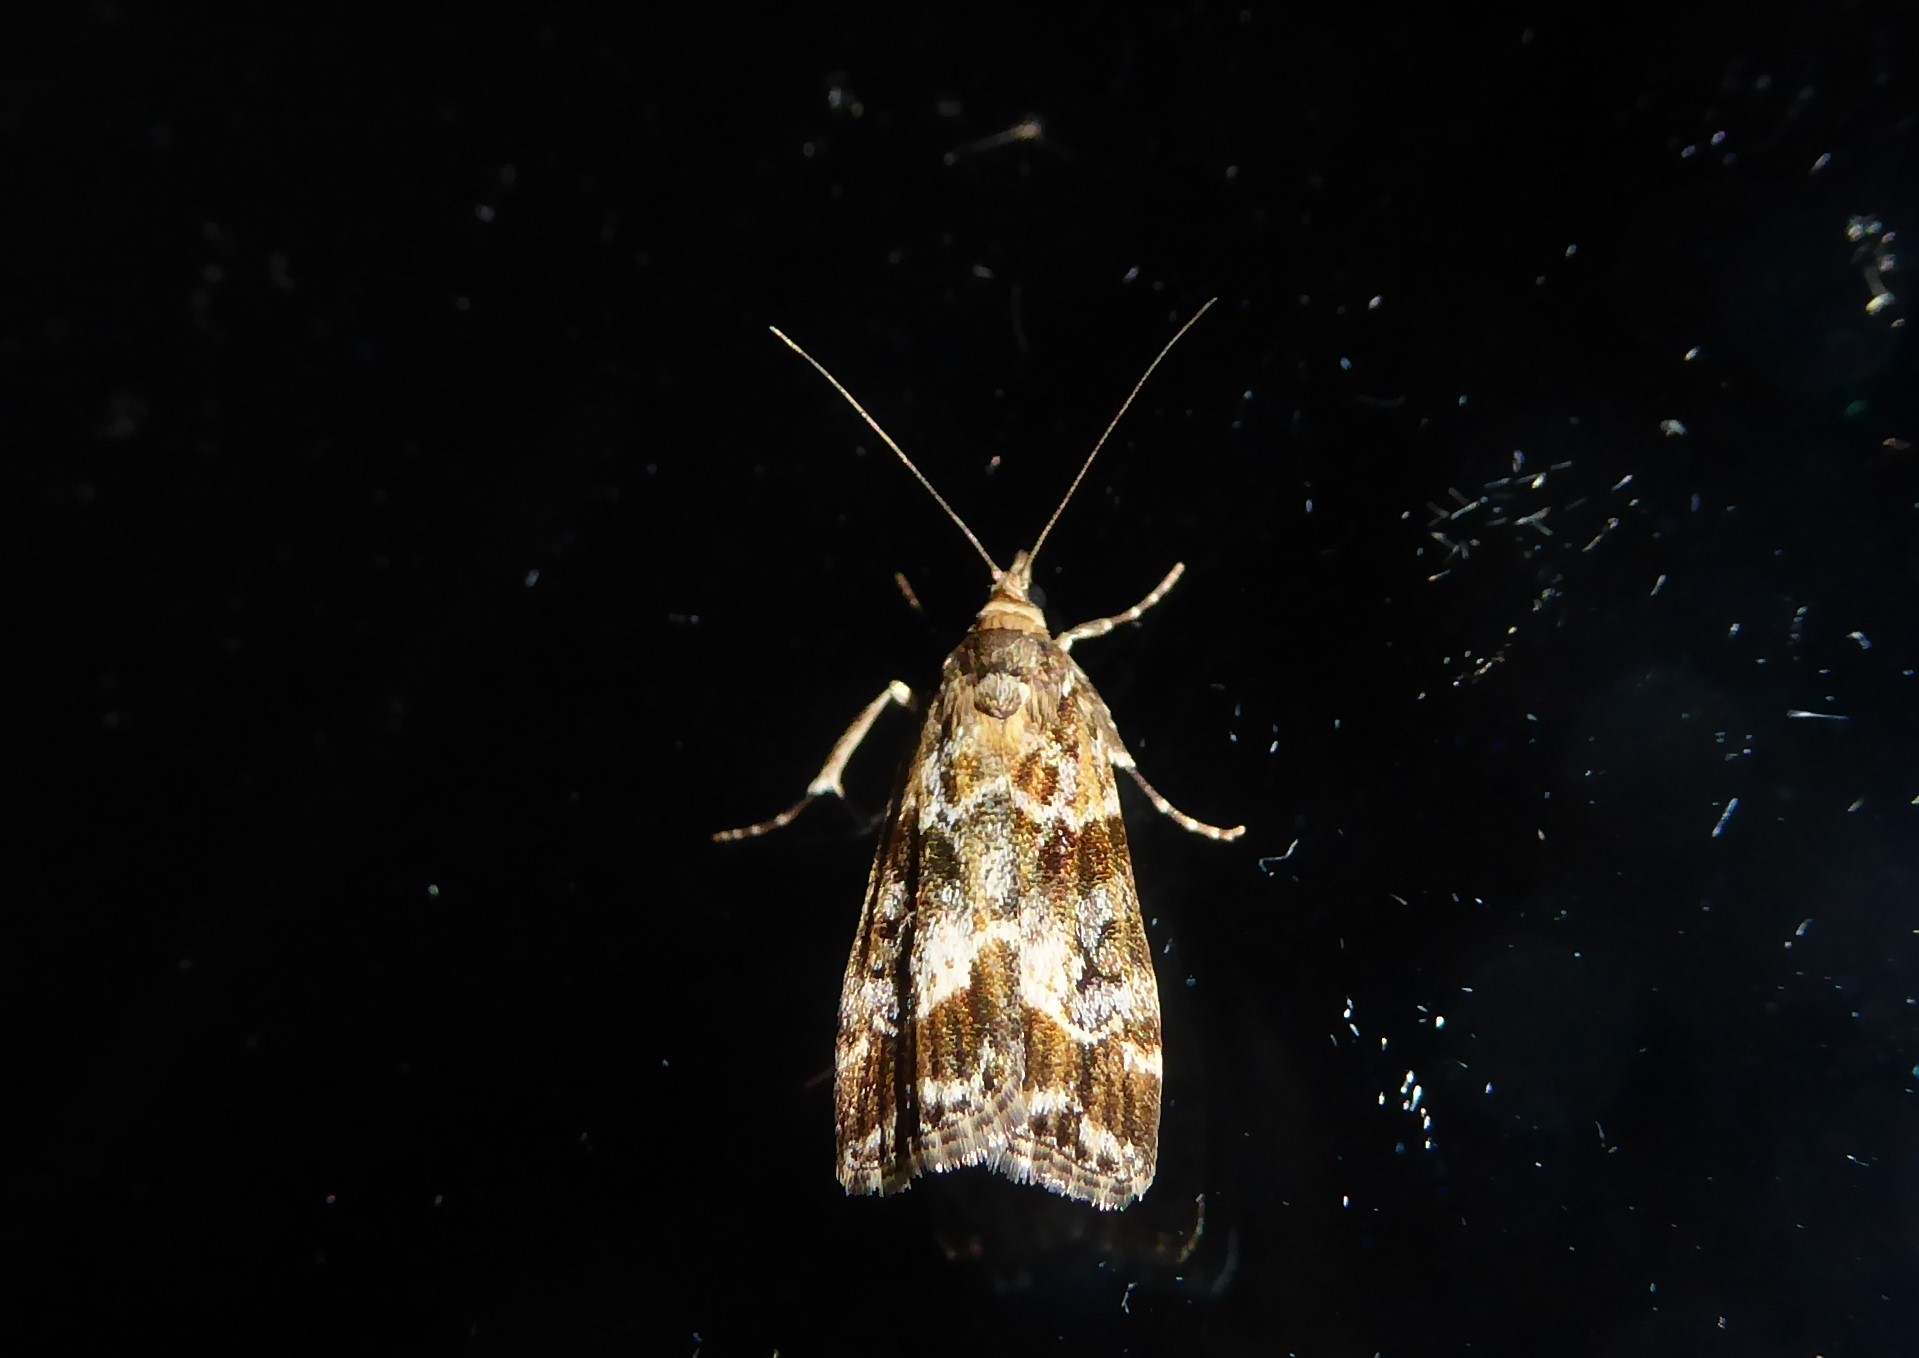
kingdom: Animalia
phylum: Arthropoda
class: Insecta
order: Lepidoptera
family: Crambidae
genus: Eudonia
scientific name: Eudonia legnota
